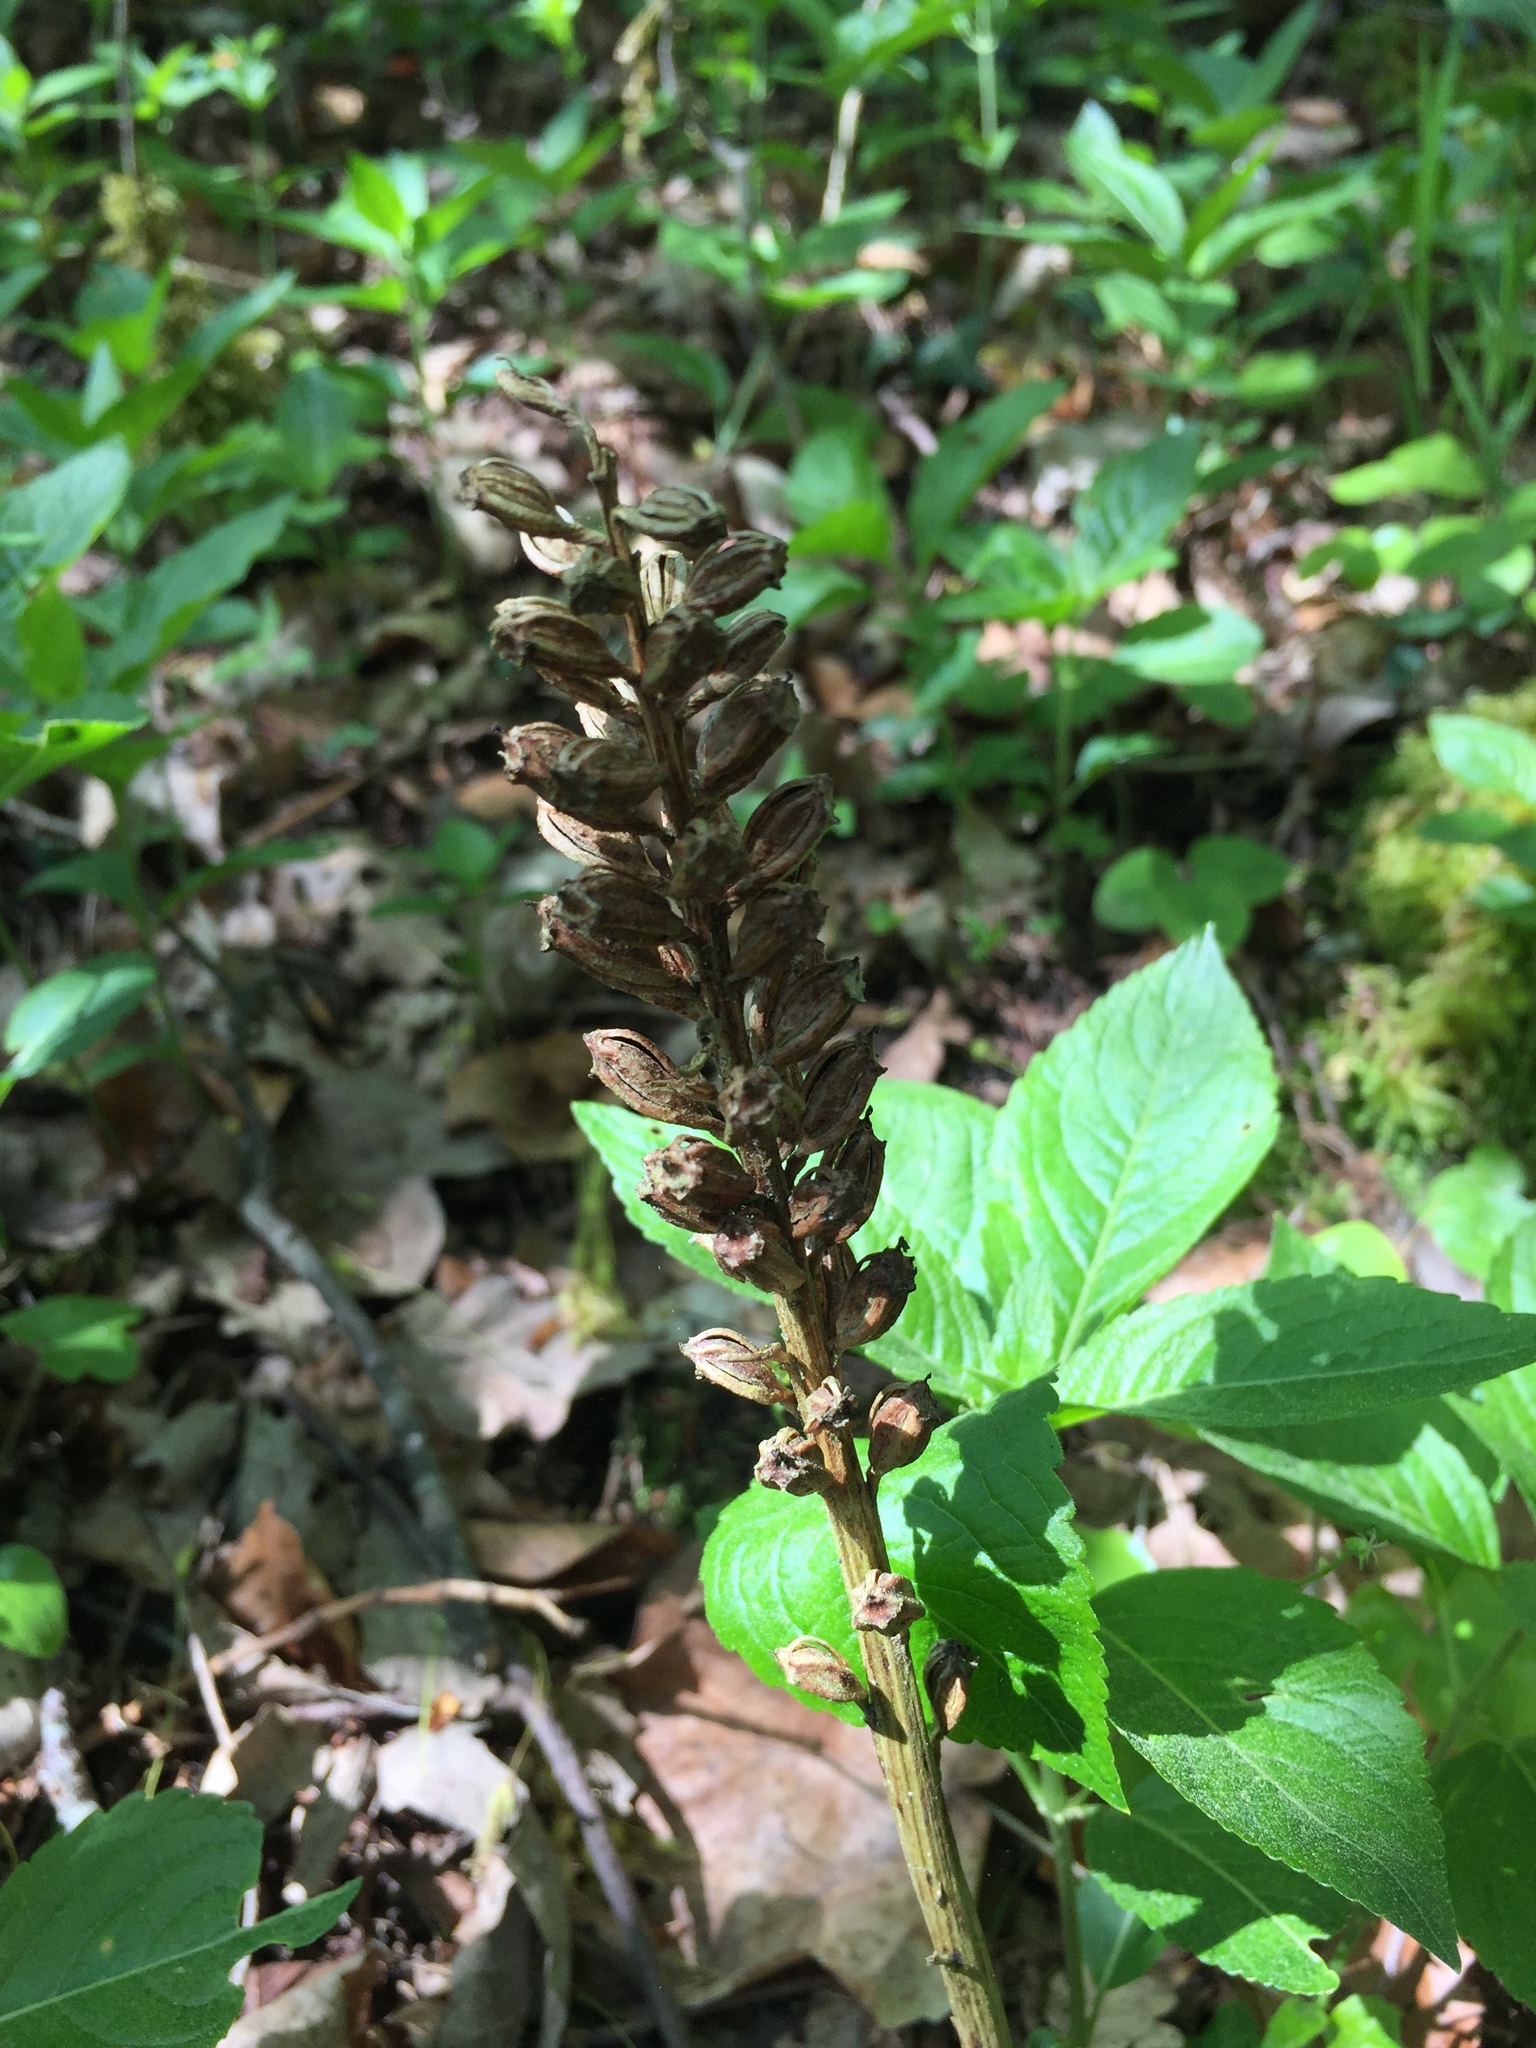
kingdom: Plantae
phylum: Tracheophyta
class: Liliopsida
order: Asparagales
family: Orchidaceae
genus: Neottia
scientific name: Neottia nidus-avis
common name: Bird's-nest orchid
